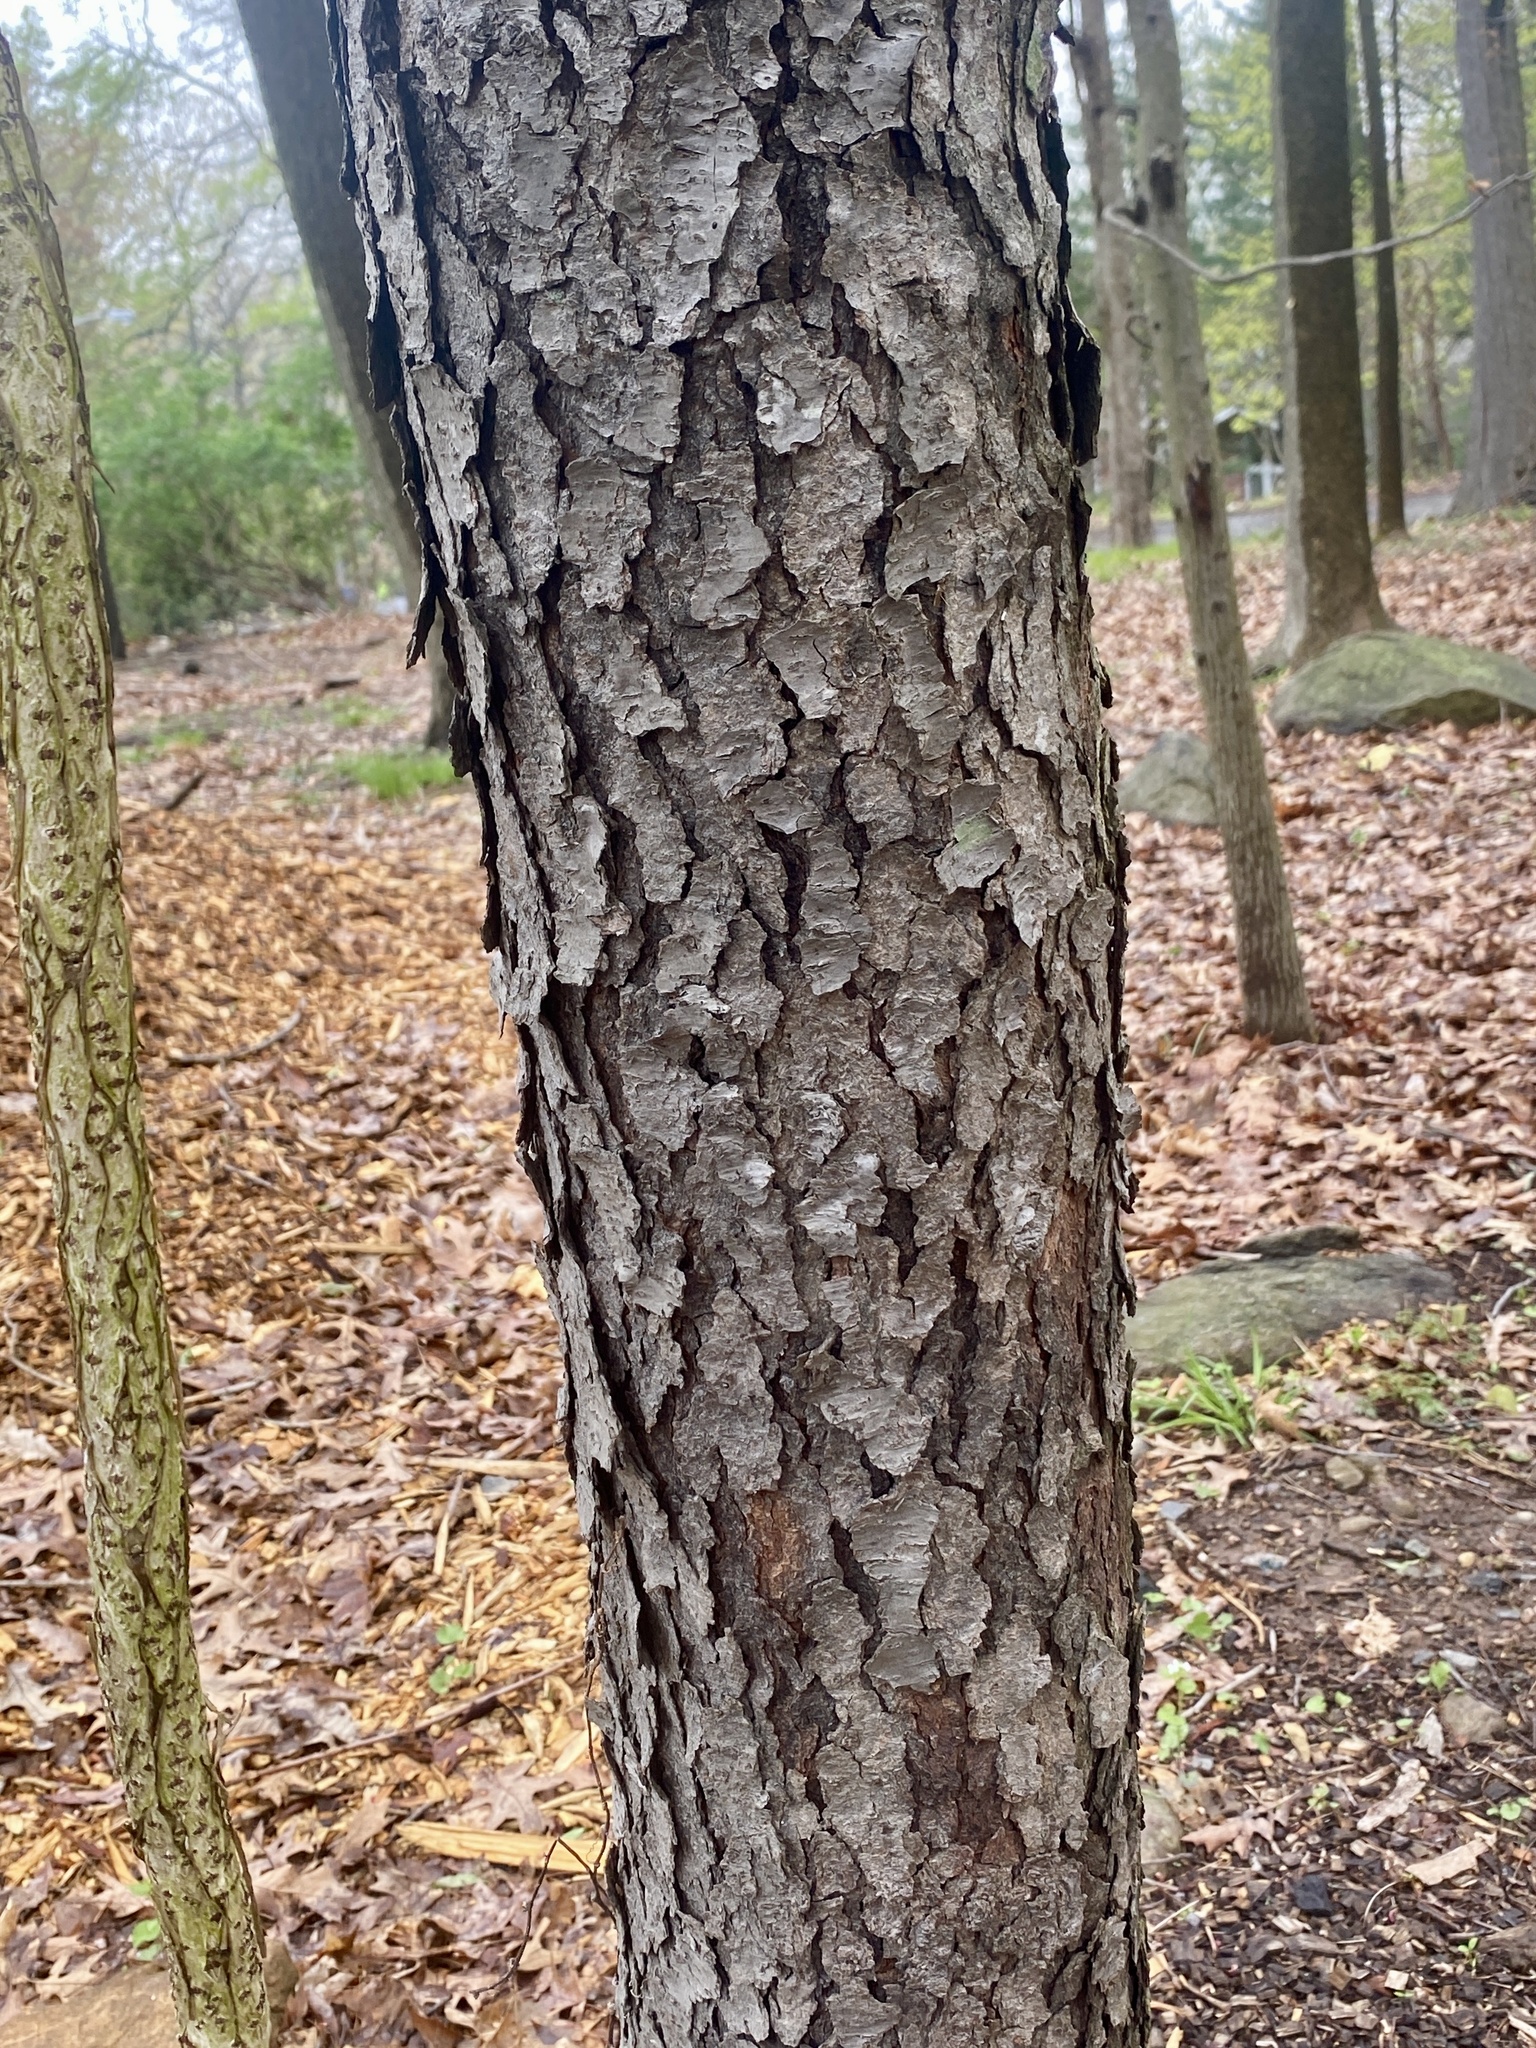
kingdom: Fungi
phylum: Ascomycota
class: Dothideomycetes
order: Venturiales
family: Venturiaceae
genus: Apiosporina
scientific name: Apiosporina morbosa
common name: Black knot
